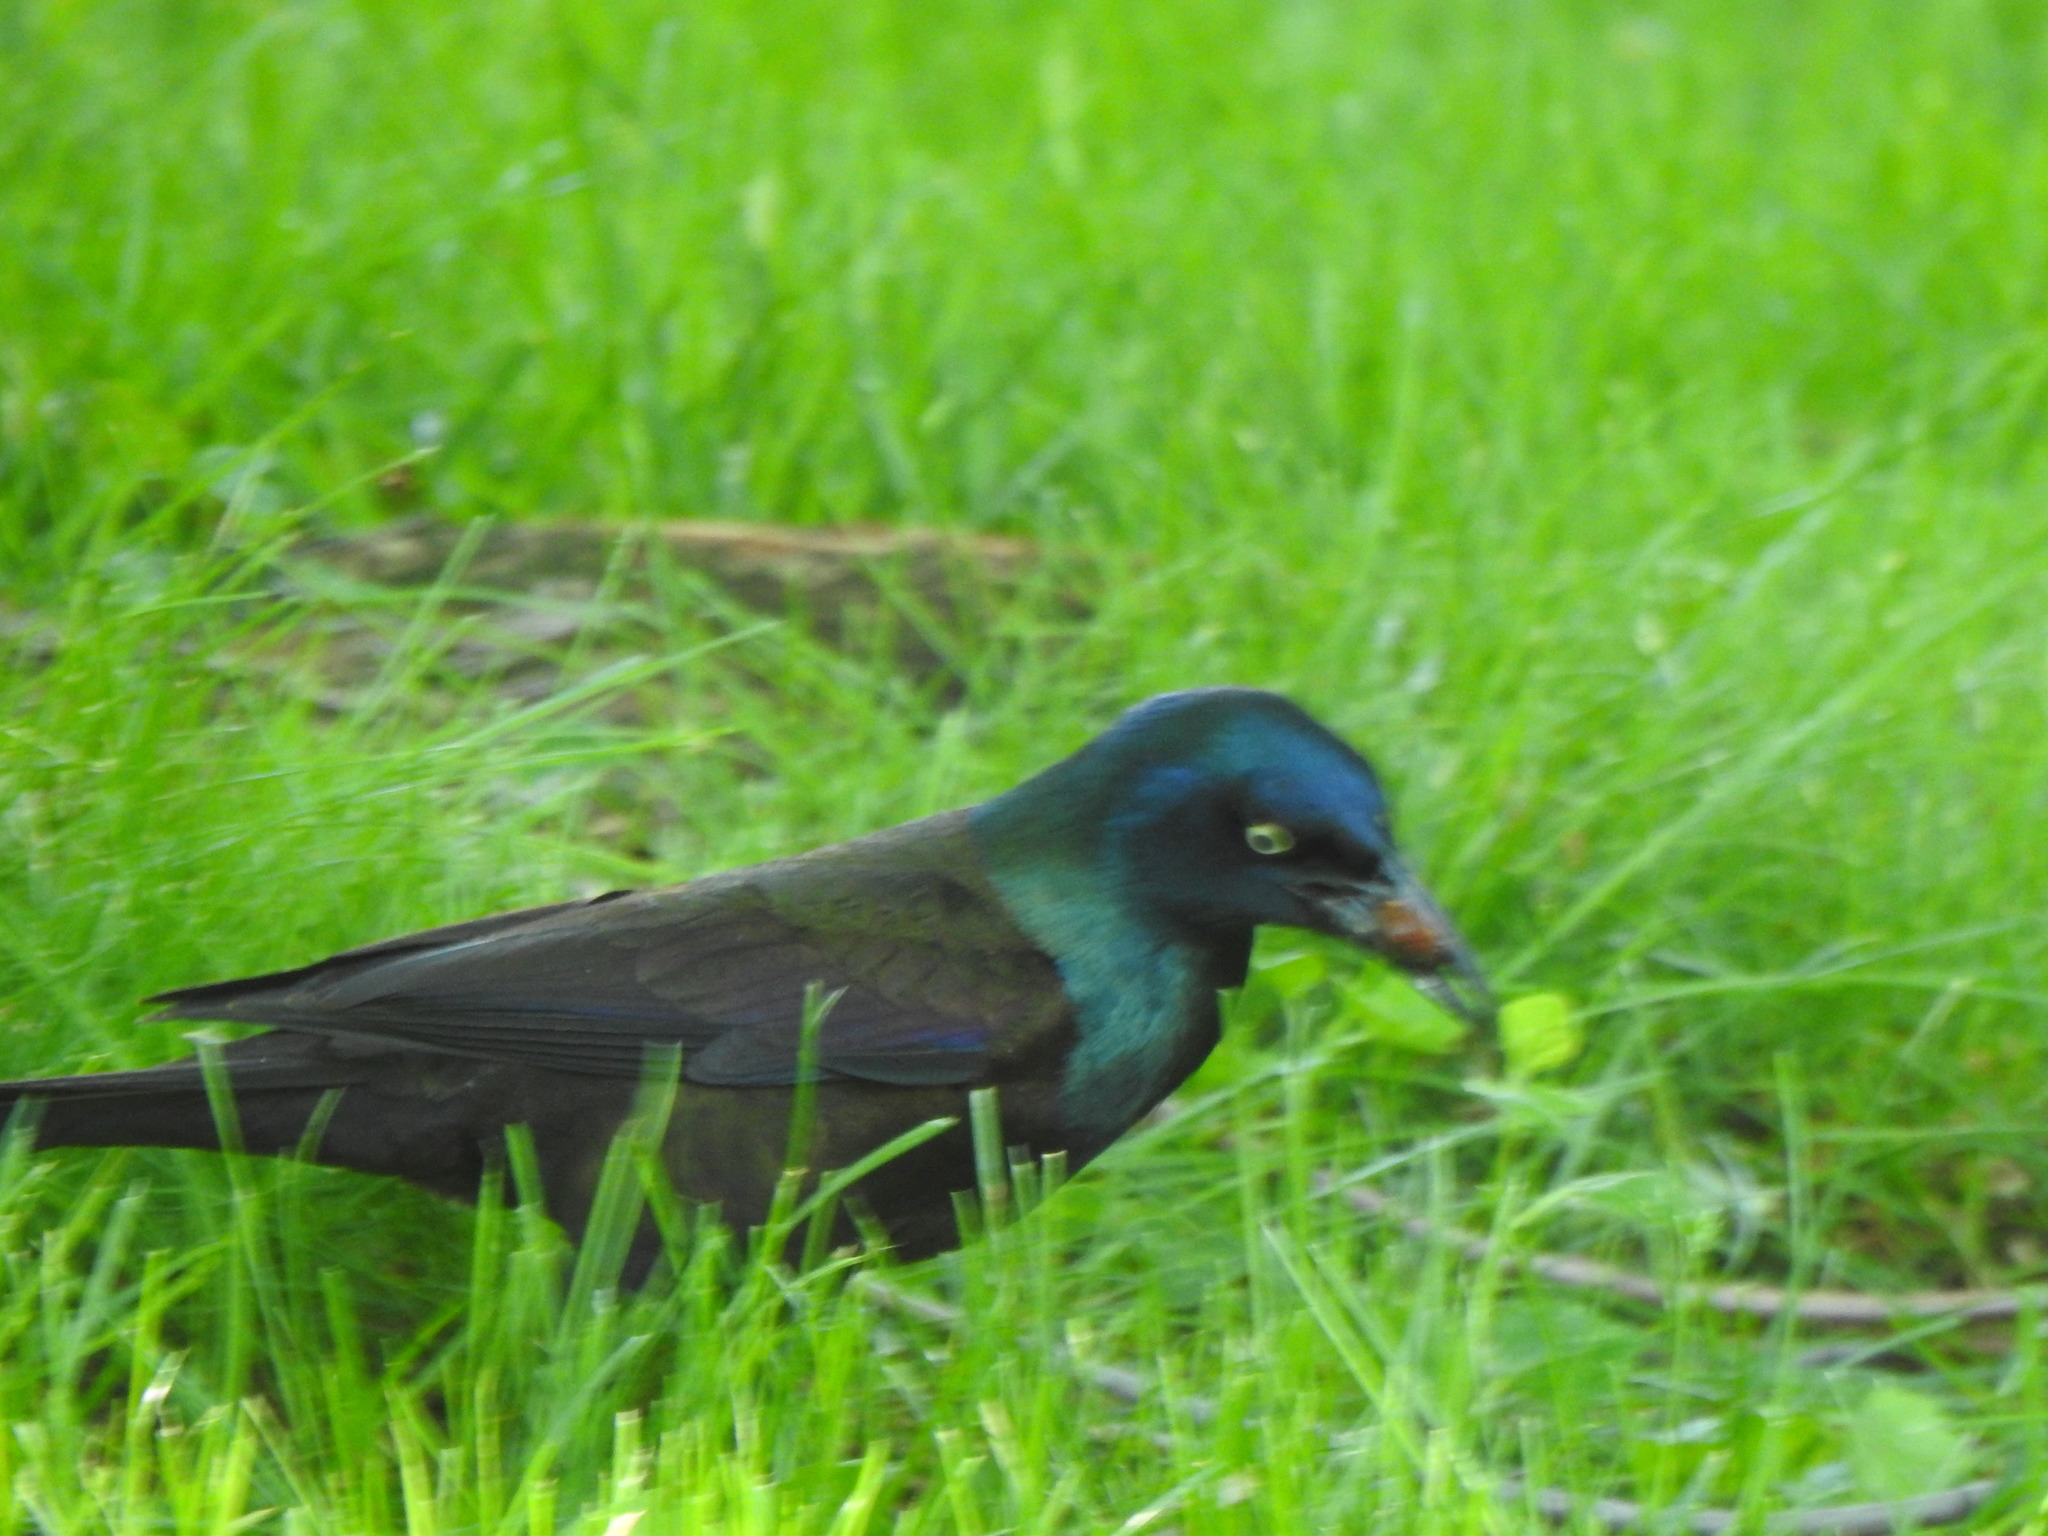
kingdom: Animalia
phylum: Chordata
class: Aves
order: Passeriformes
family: Icteridae
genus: Quiscalus
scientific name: Quiscalus quiscula
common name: Common grackle
